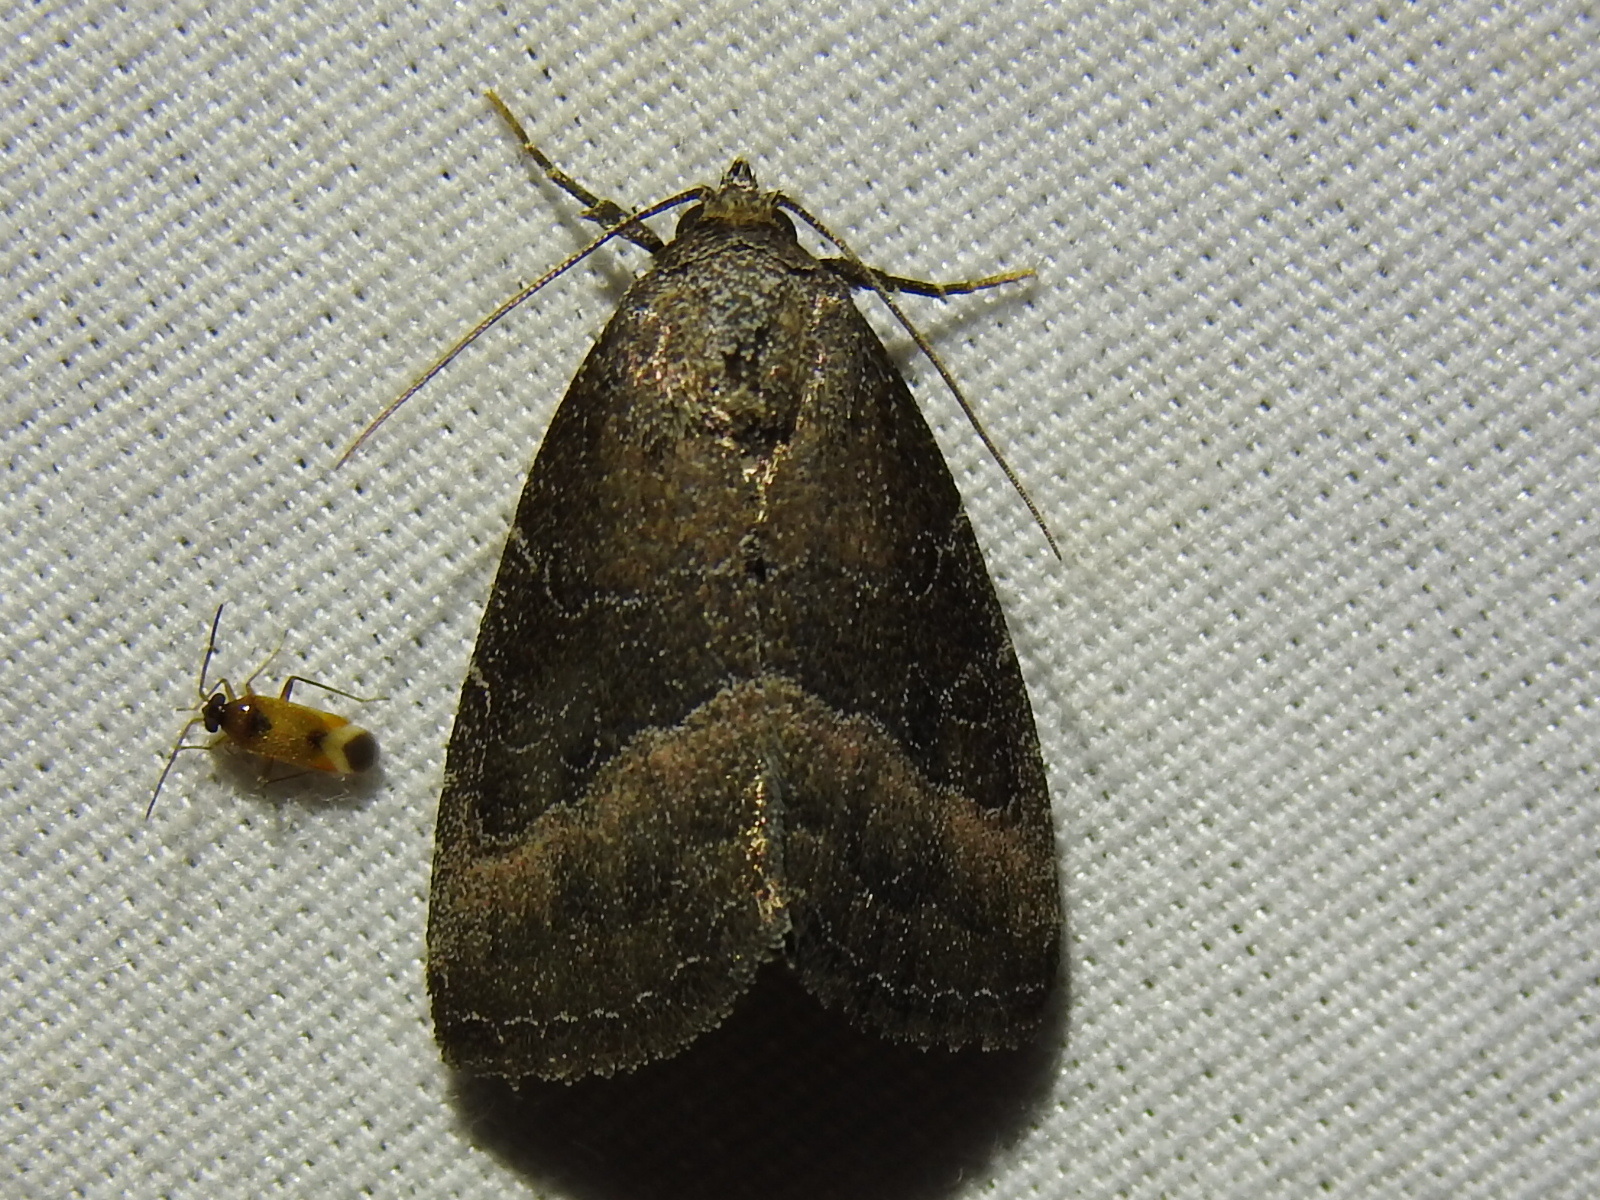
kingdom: Animalia
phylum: Arthropoda
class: Insecta
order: Lepidoptera
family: Noctuidae
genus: Ogdoconta
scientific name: Ogdoconta cinereola
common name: Common pinkband
